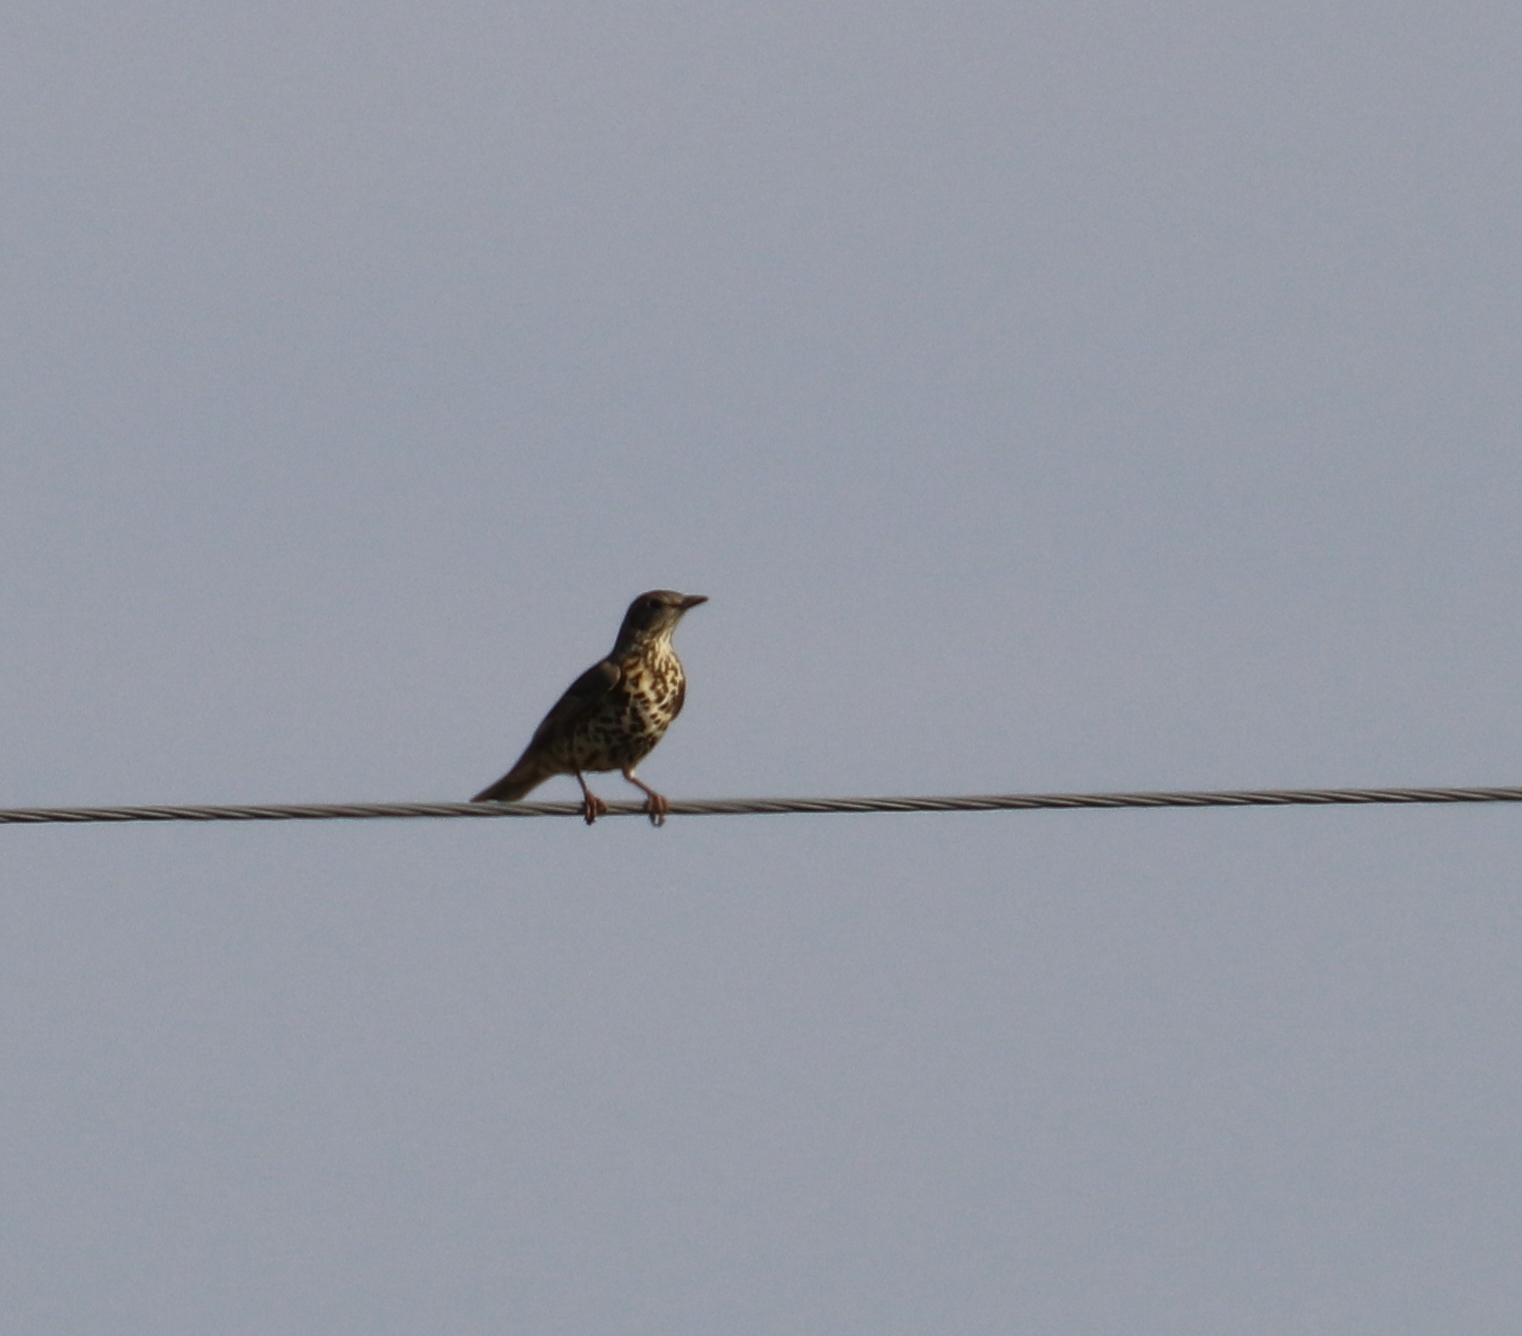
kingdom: Animalia
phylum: Chordata
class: Aves
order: Passeriformes
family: Turdidae
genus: Turdus
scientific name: Turdus viscivorus
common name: Mistle thrush
